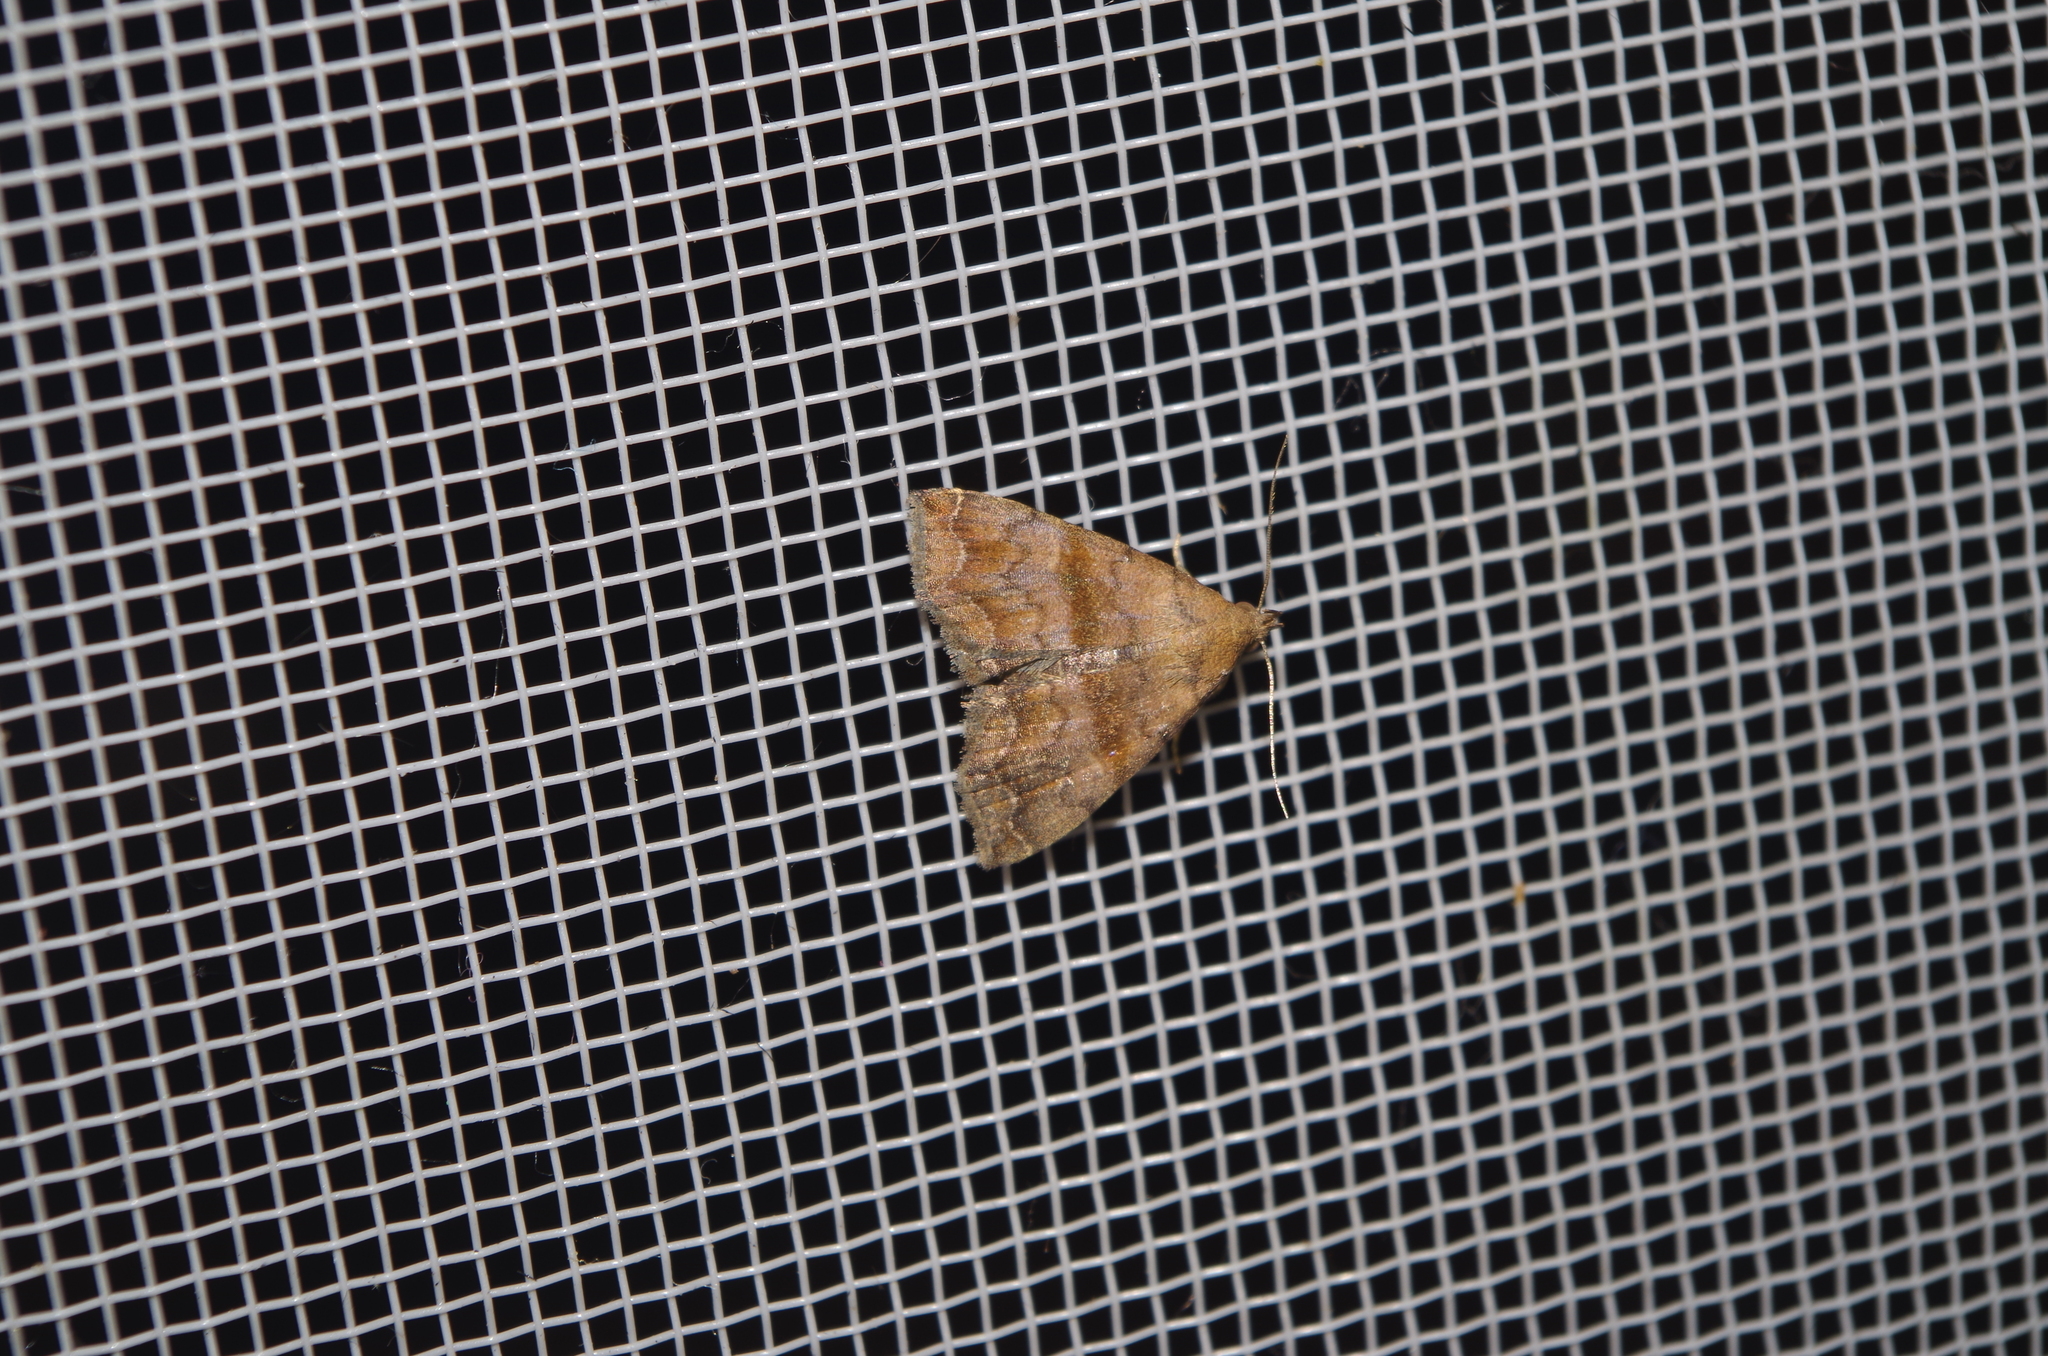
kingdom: Animalia
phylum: Arthropoda
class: Insecta
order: Lepidoptera
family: Erebidae
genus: Polypogon
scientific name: Polypogon Hipoepa fractalis
